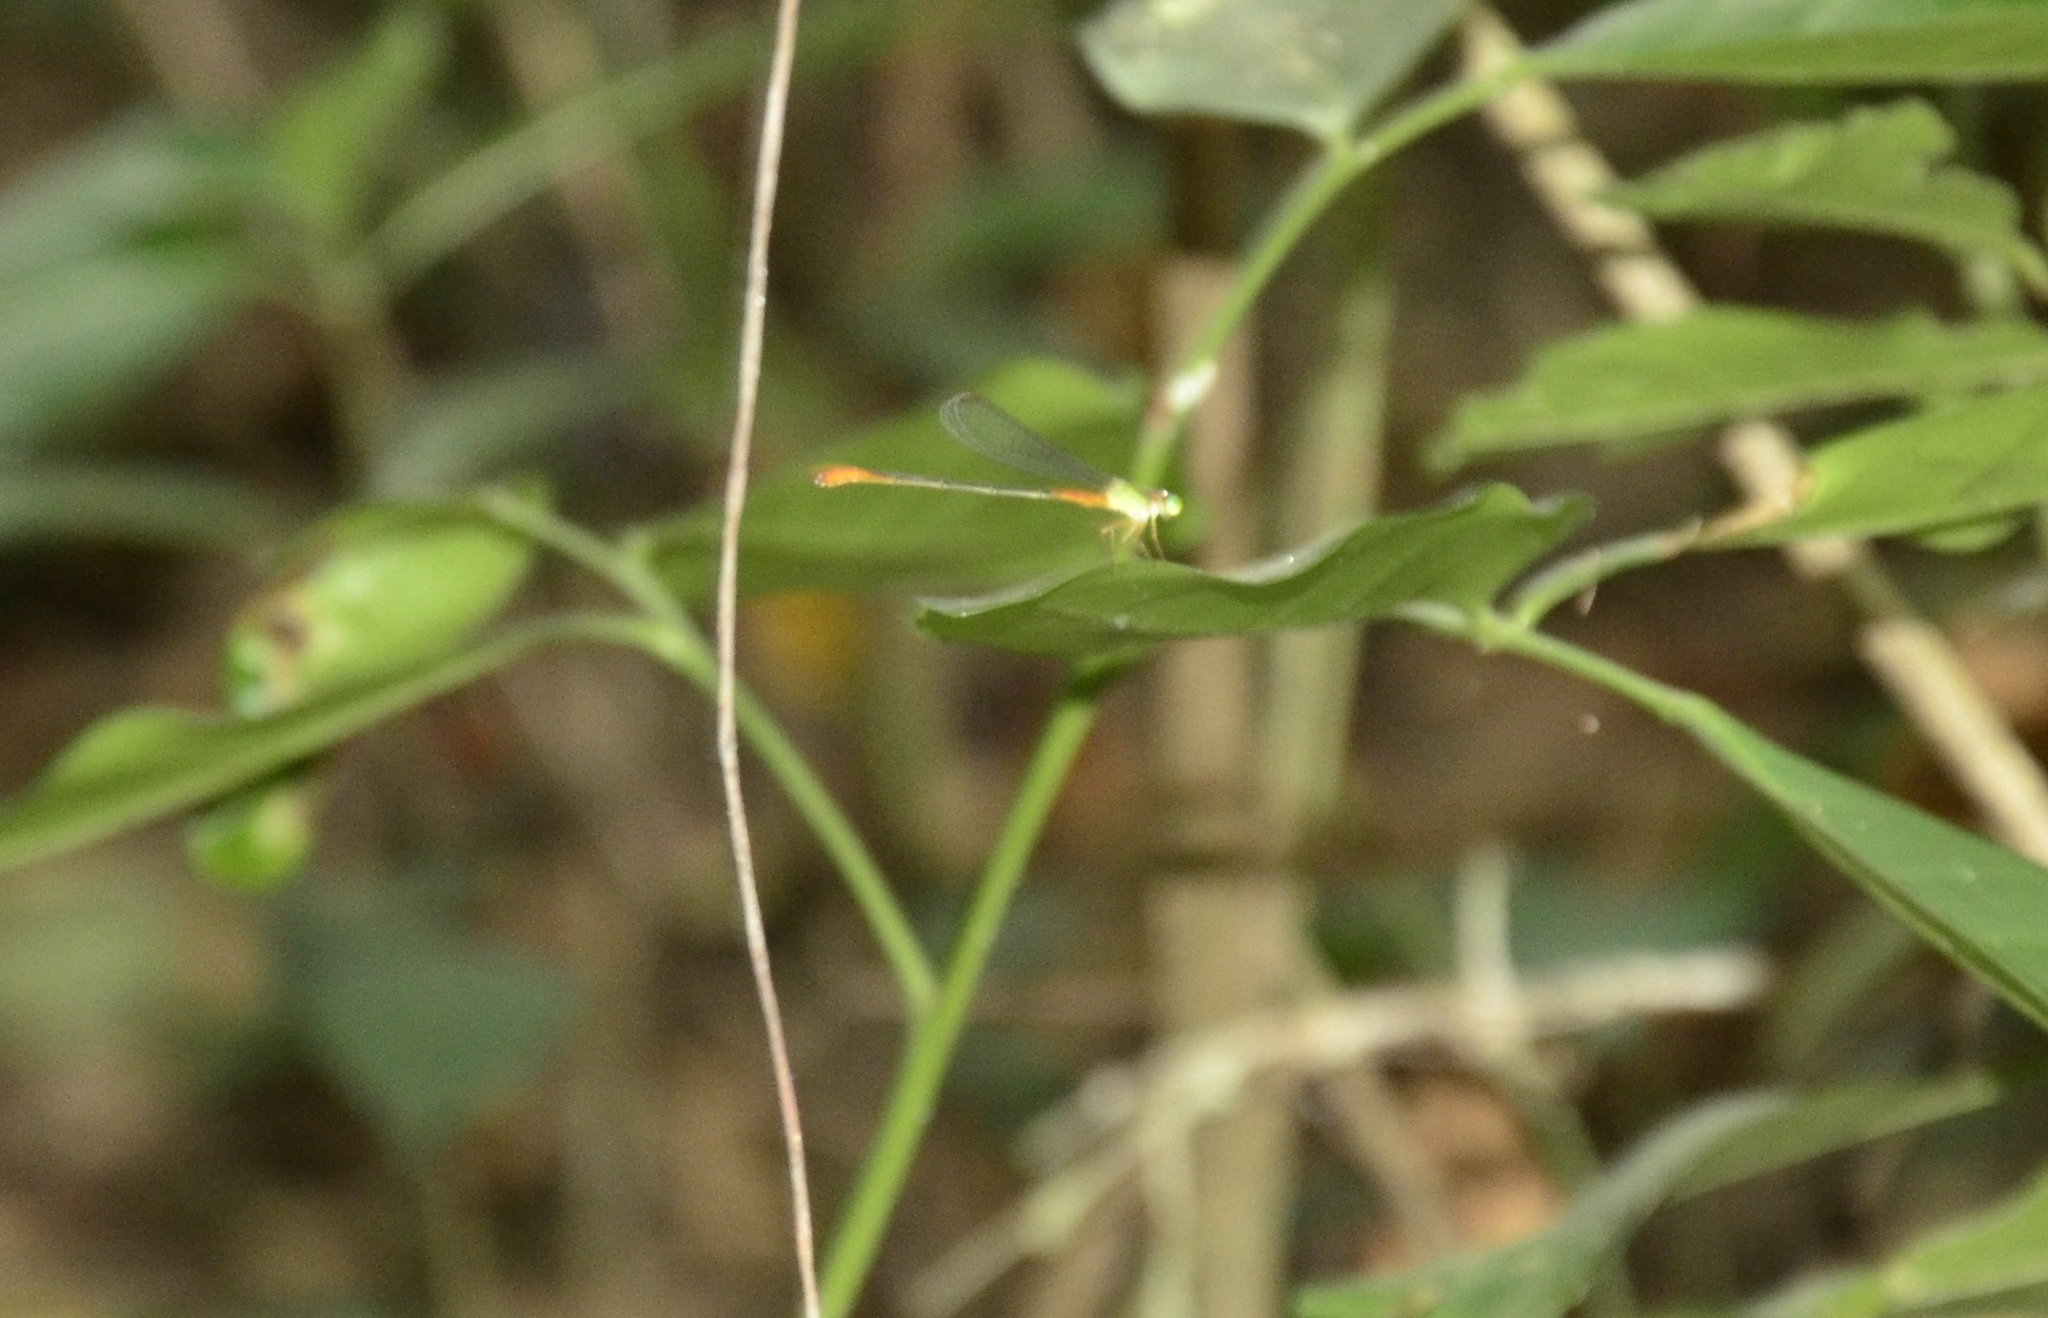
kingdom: Animalia
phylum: Arthropoda
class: Insecta
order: Odonata
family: Coenagrionidae
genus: Ceriagrion
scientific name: Ceriagrion cerinorubellum
